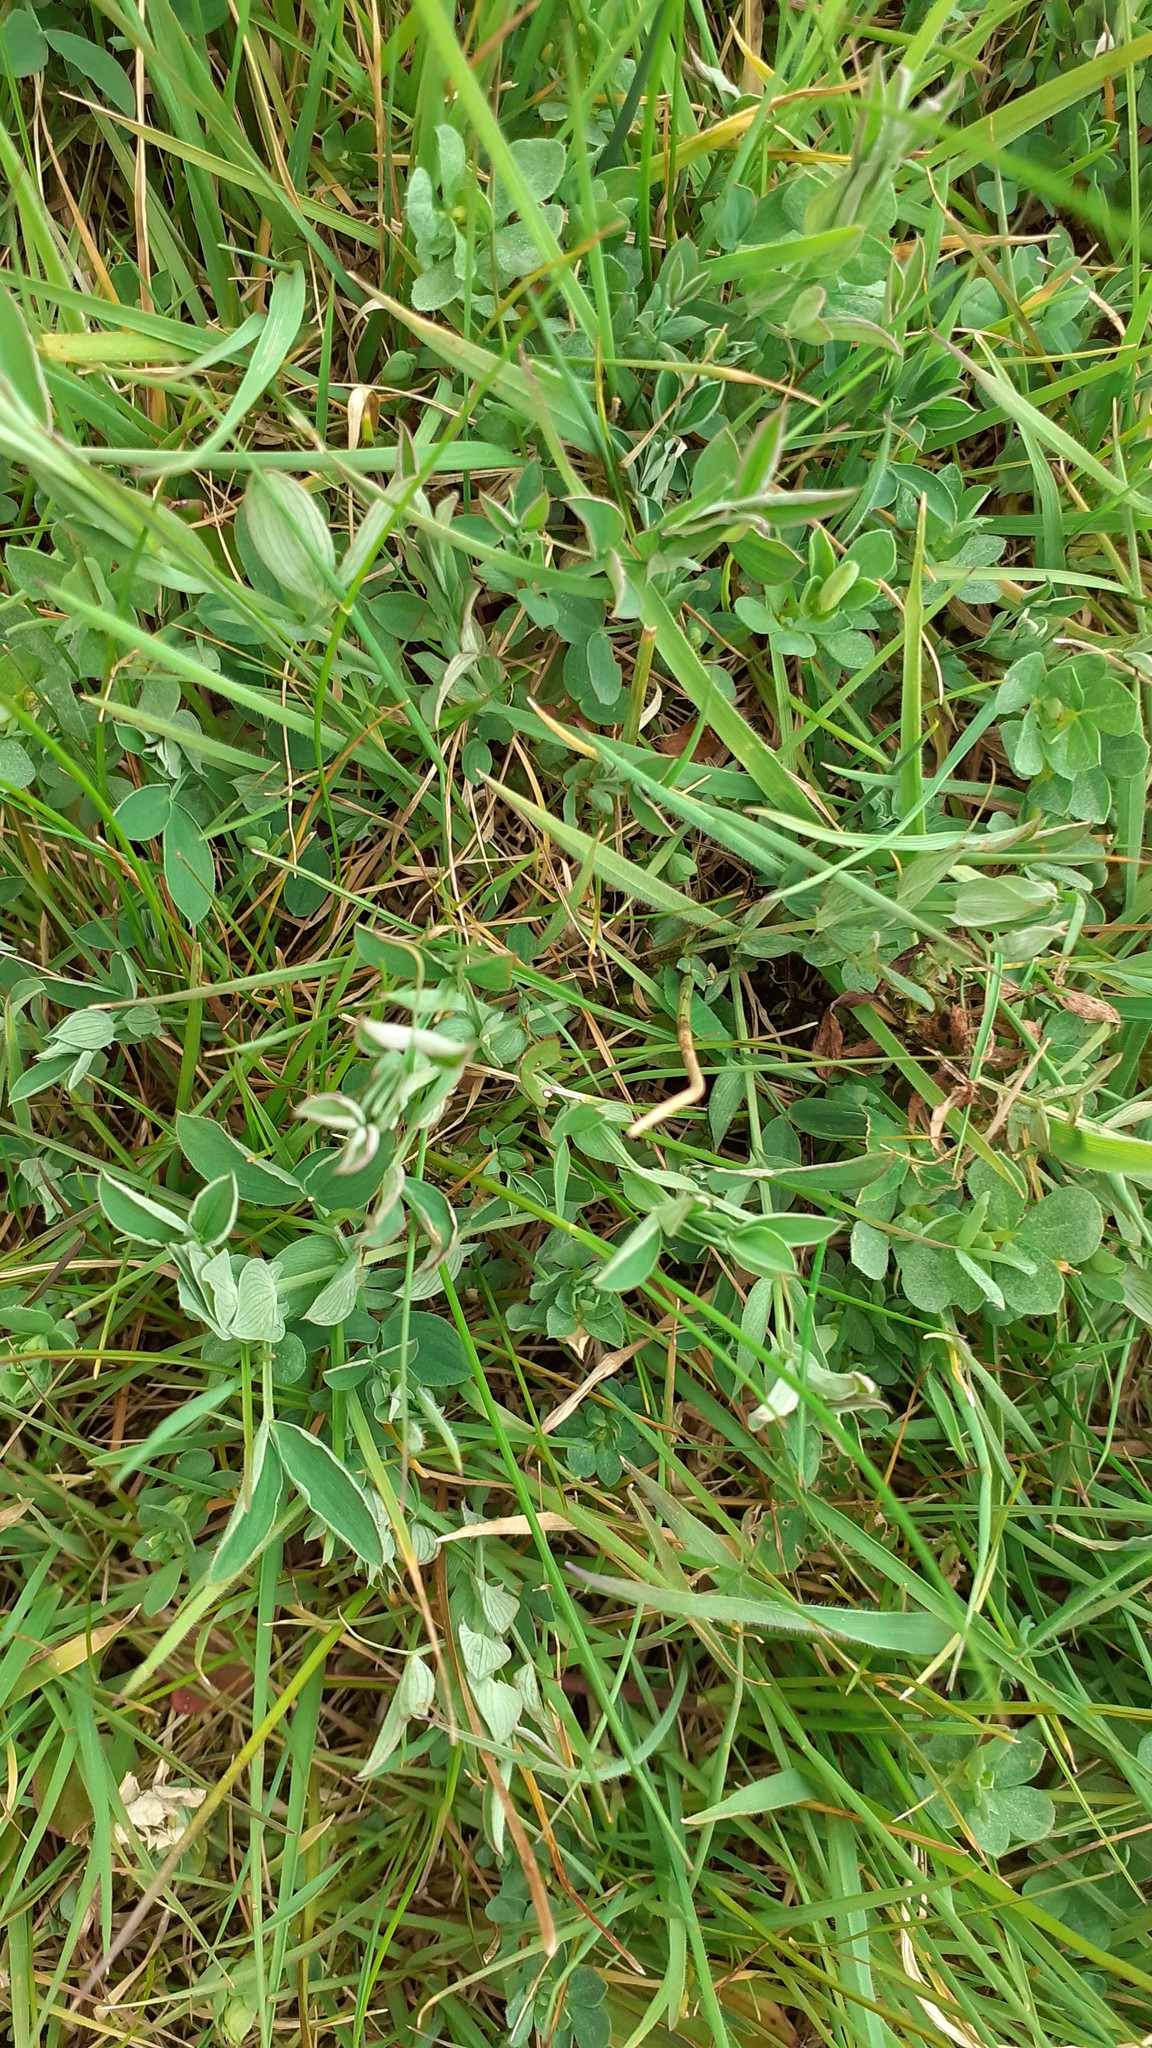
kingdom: Plantae
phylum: Tracheophyta
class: Magnoliopsida
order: Fabales
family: Fabaceae
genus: Lathyrus
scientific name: Lathyrus pratensis
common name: Meadow vetchling
